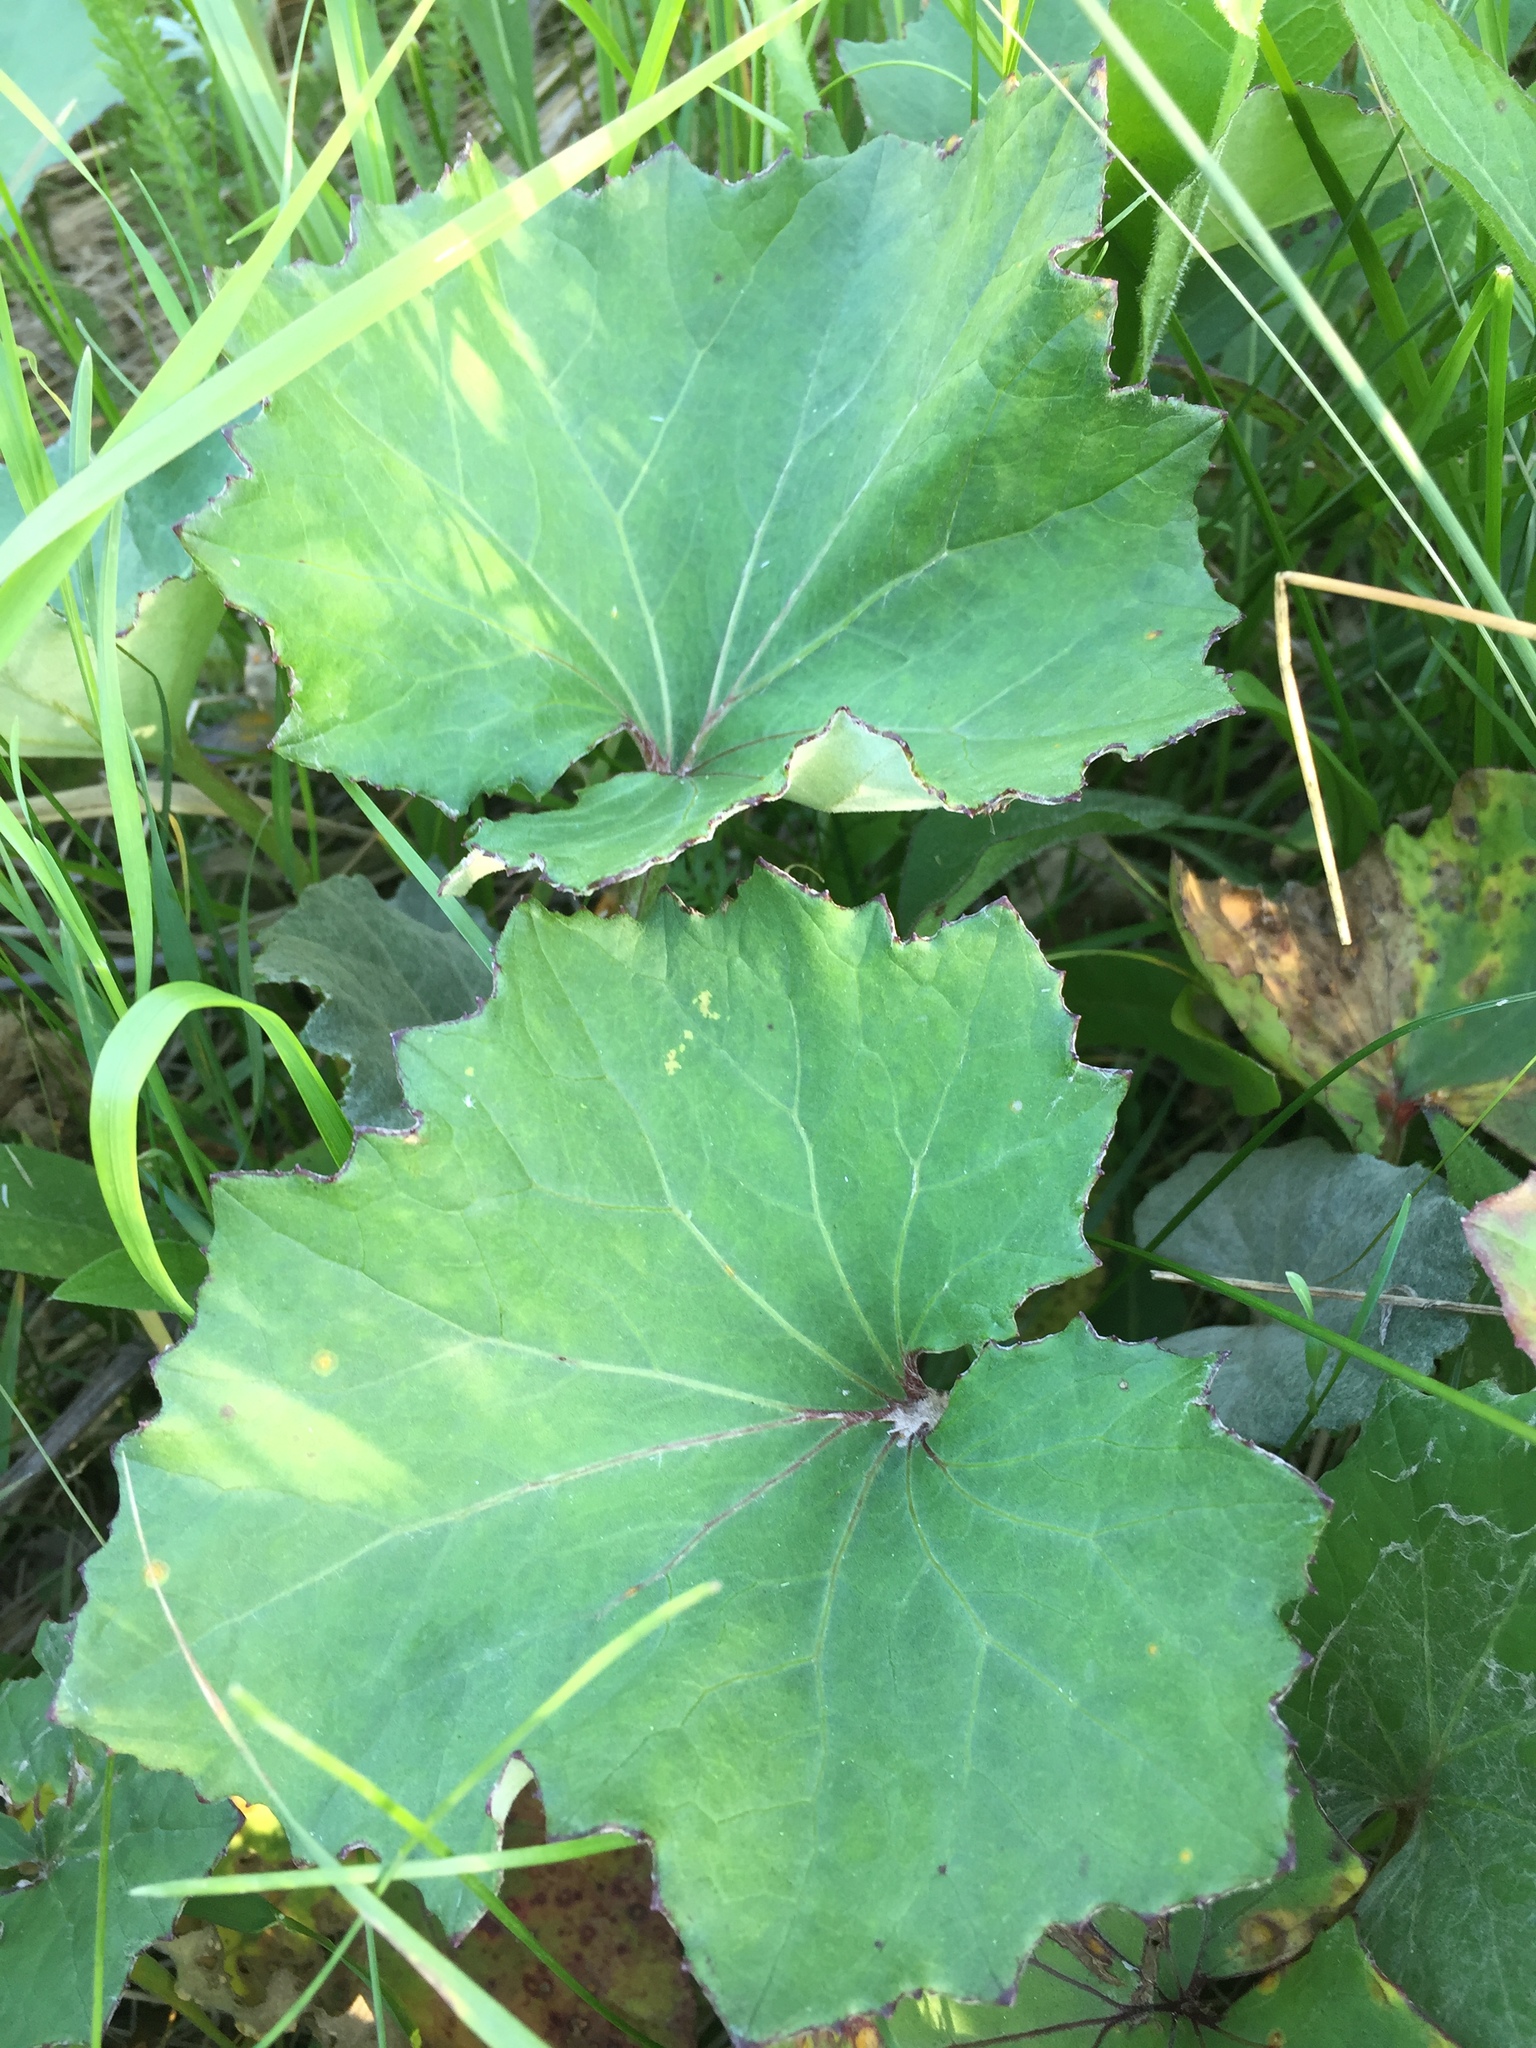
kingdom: Plantae
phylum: Tracheophyta
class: Magnoliopsida
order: Asterales
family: Asteraceae
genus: Tussilago
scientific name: Tussilago farfara
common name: Coltsfoot
